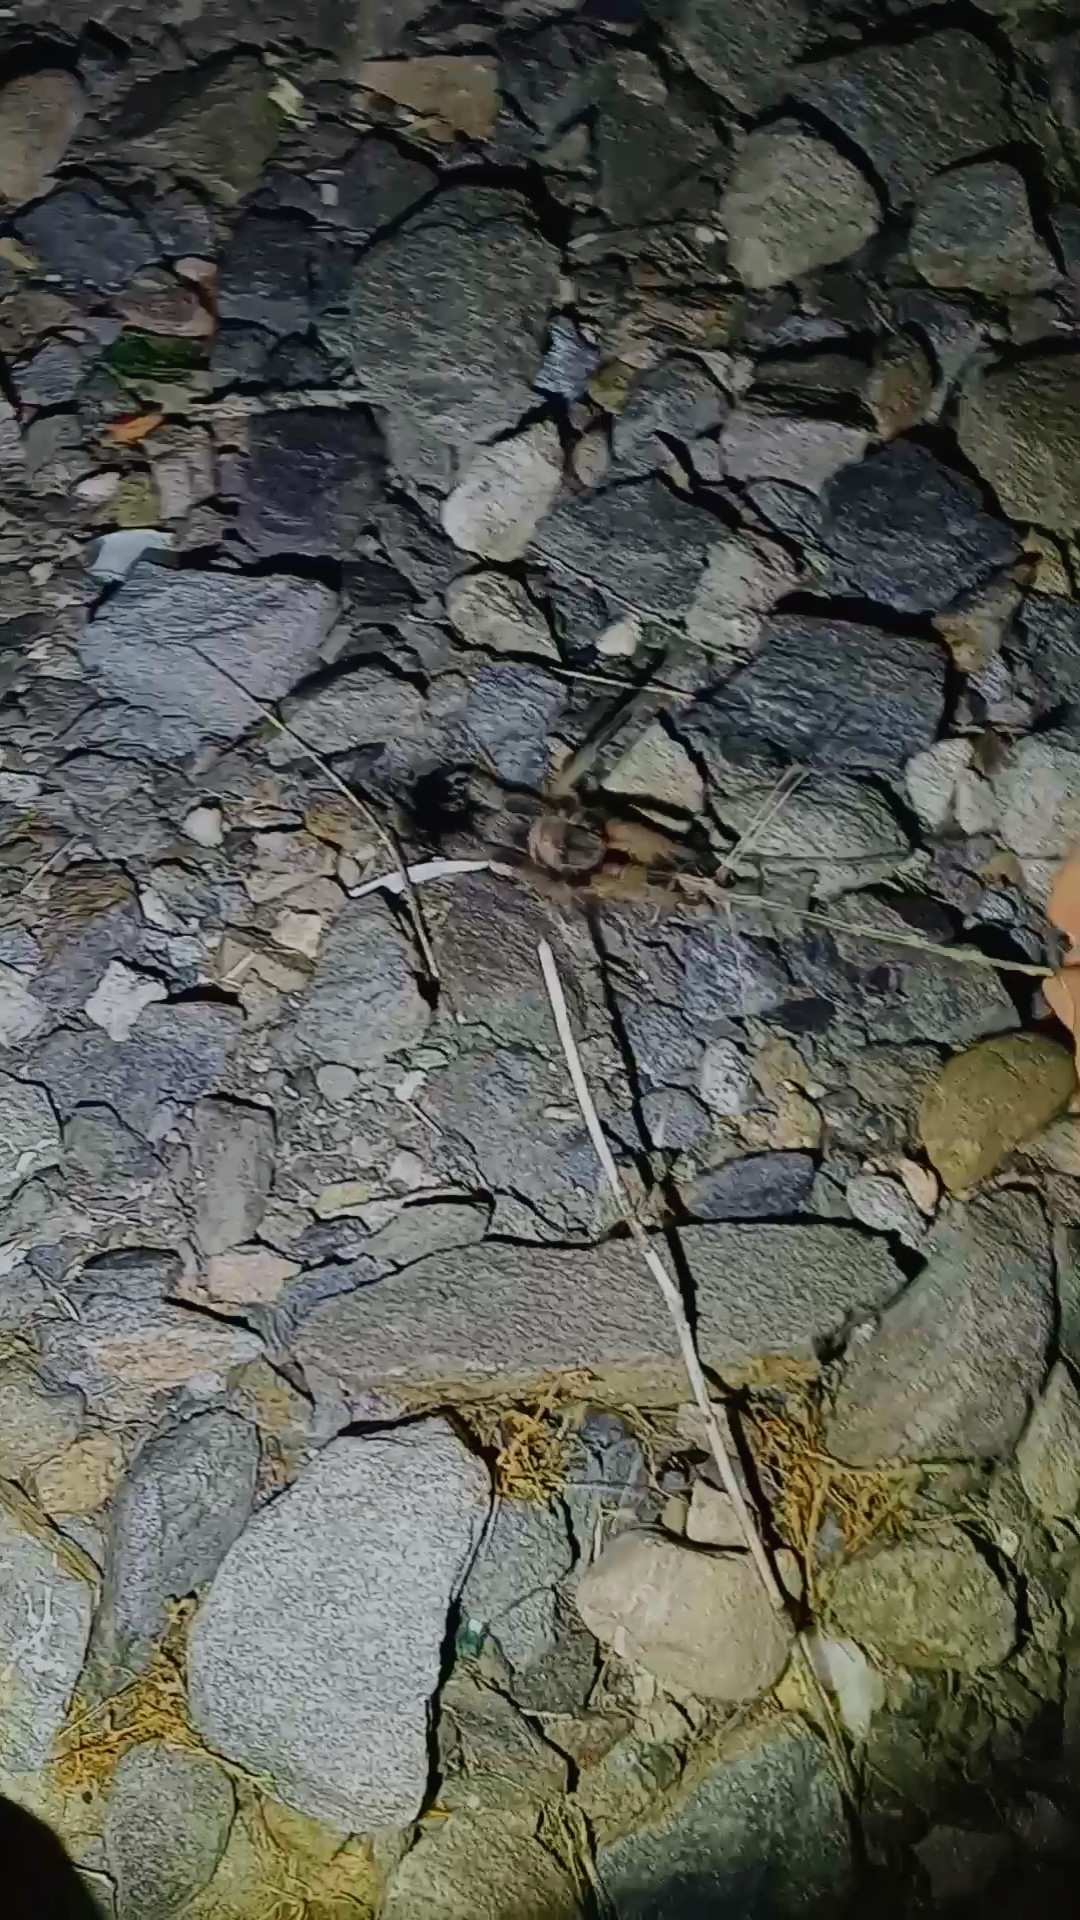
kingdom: Animalia
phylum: Arthropoda
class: Arachnida
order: Araneae
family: Theraphosidae
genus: Aphonopelma
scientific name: Aphonopelma eutylenum
